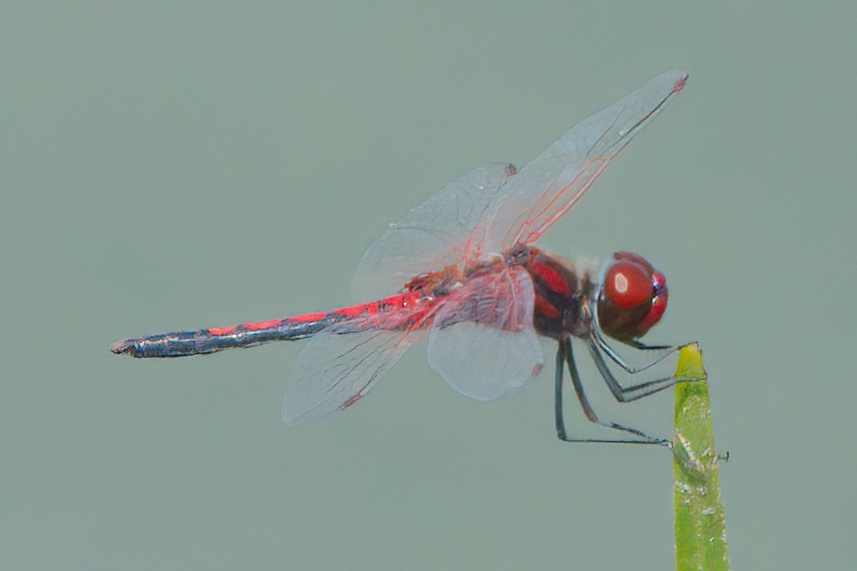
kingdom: Animalia
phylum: Arthropoda
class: Insecta
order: Odonata
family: Libellulidae
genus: Celithemis
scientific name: Celithemis bertha
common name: Red-veined pennant
